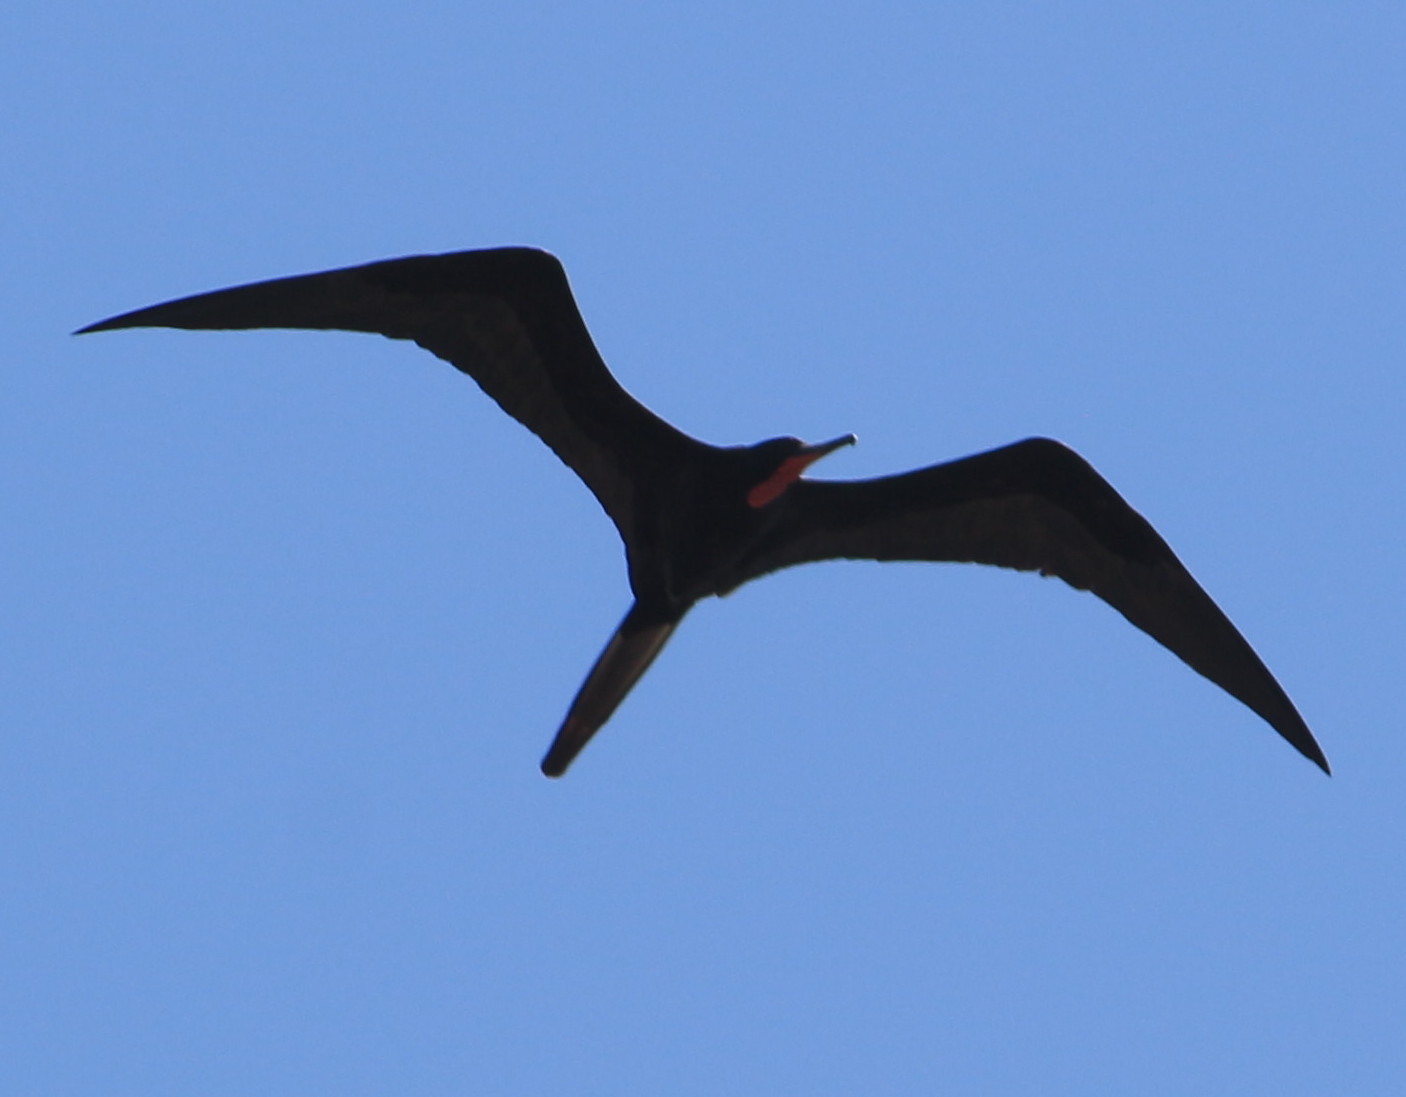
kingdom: Animalia
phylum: Chordata
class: Aves
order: Suliformes
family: Fregatidae
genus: Fregata
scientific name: Fregata magnificens
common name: Magnificent frigatebird
